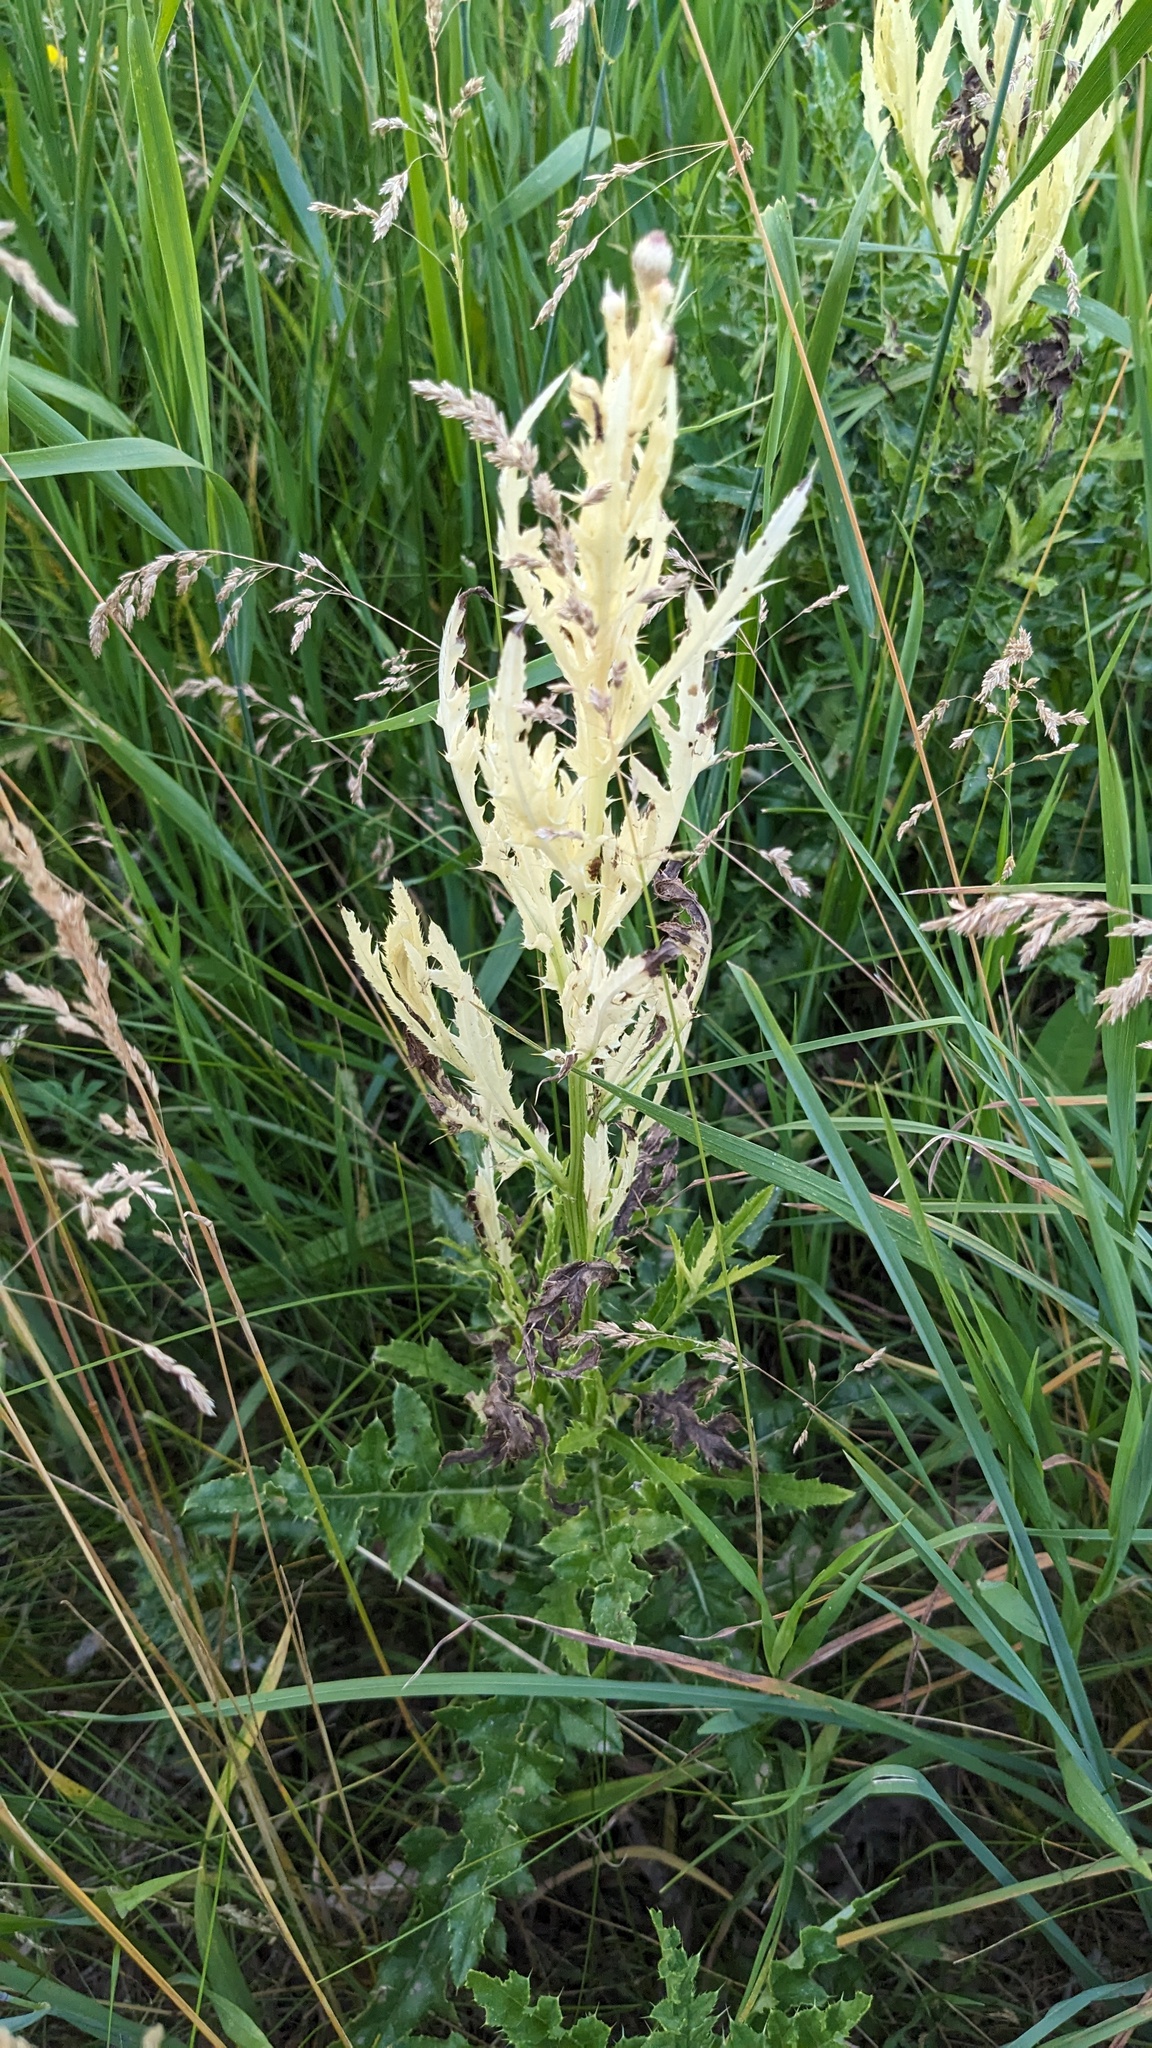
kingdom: Bacteria
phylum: Proteobacteria
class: Gammaproteobacteria
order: Pseudomonadales
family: Pseudomonadaceae
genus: Pseudomonas
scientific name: Pseudomonas syringae
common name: Bacterial speck
